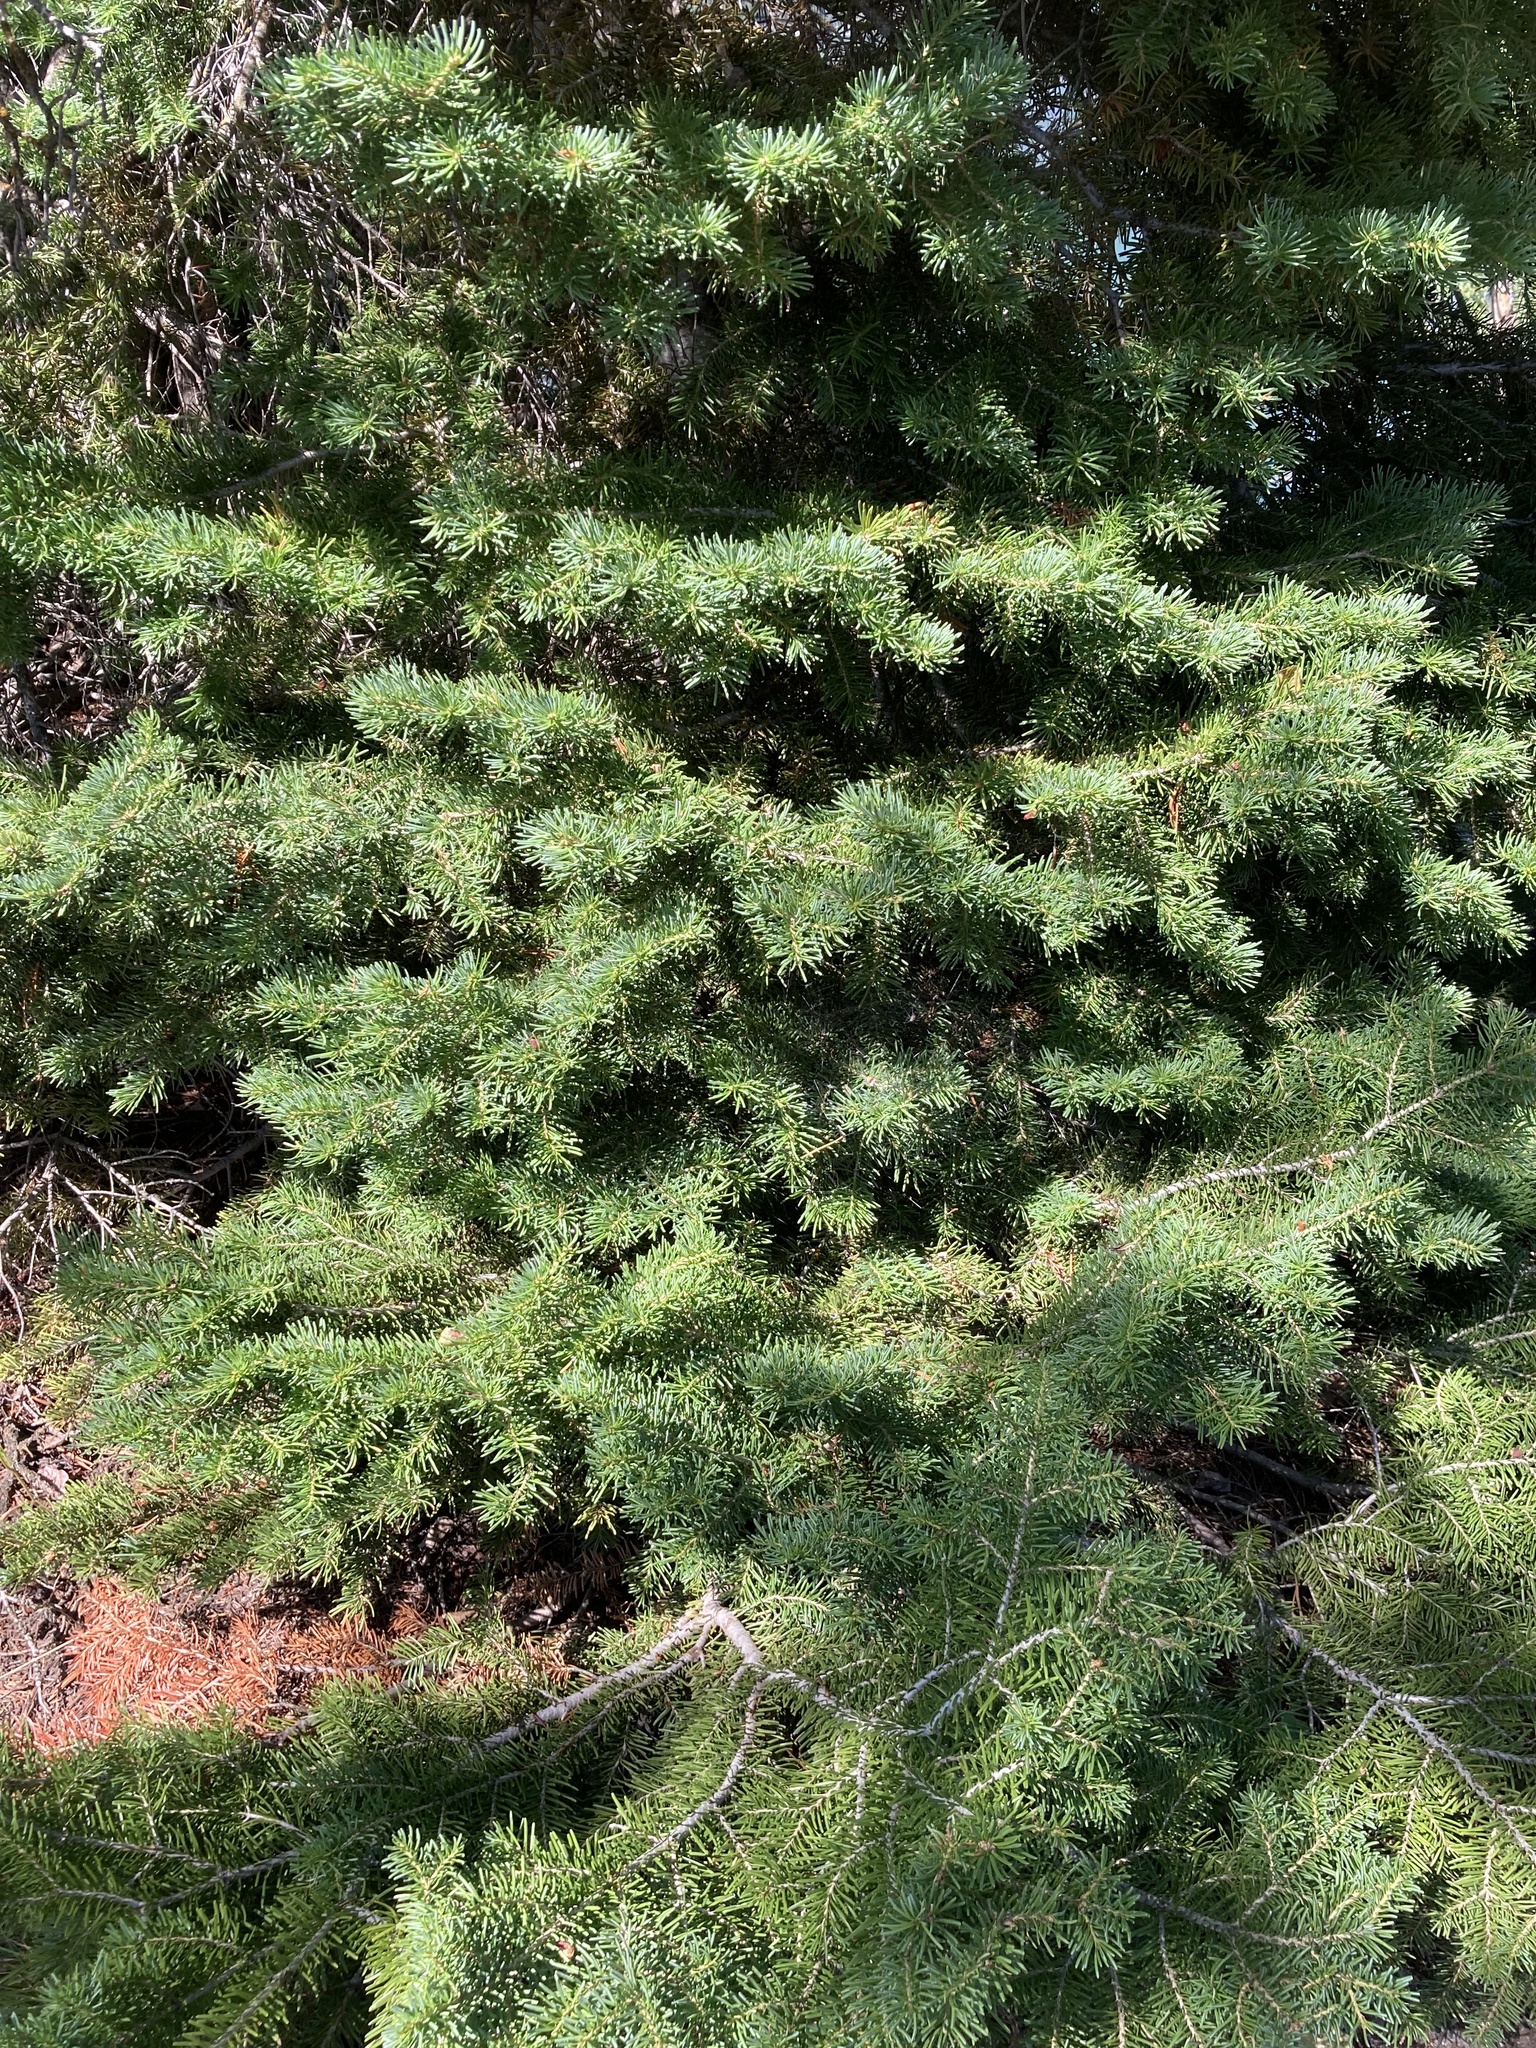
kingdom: Plantae
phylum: Tracheophyta
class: Pinopsida
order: Pinales
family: Pinaceae
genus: Abies
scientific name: Abies lasiocarpa
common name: Subalpine fir
